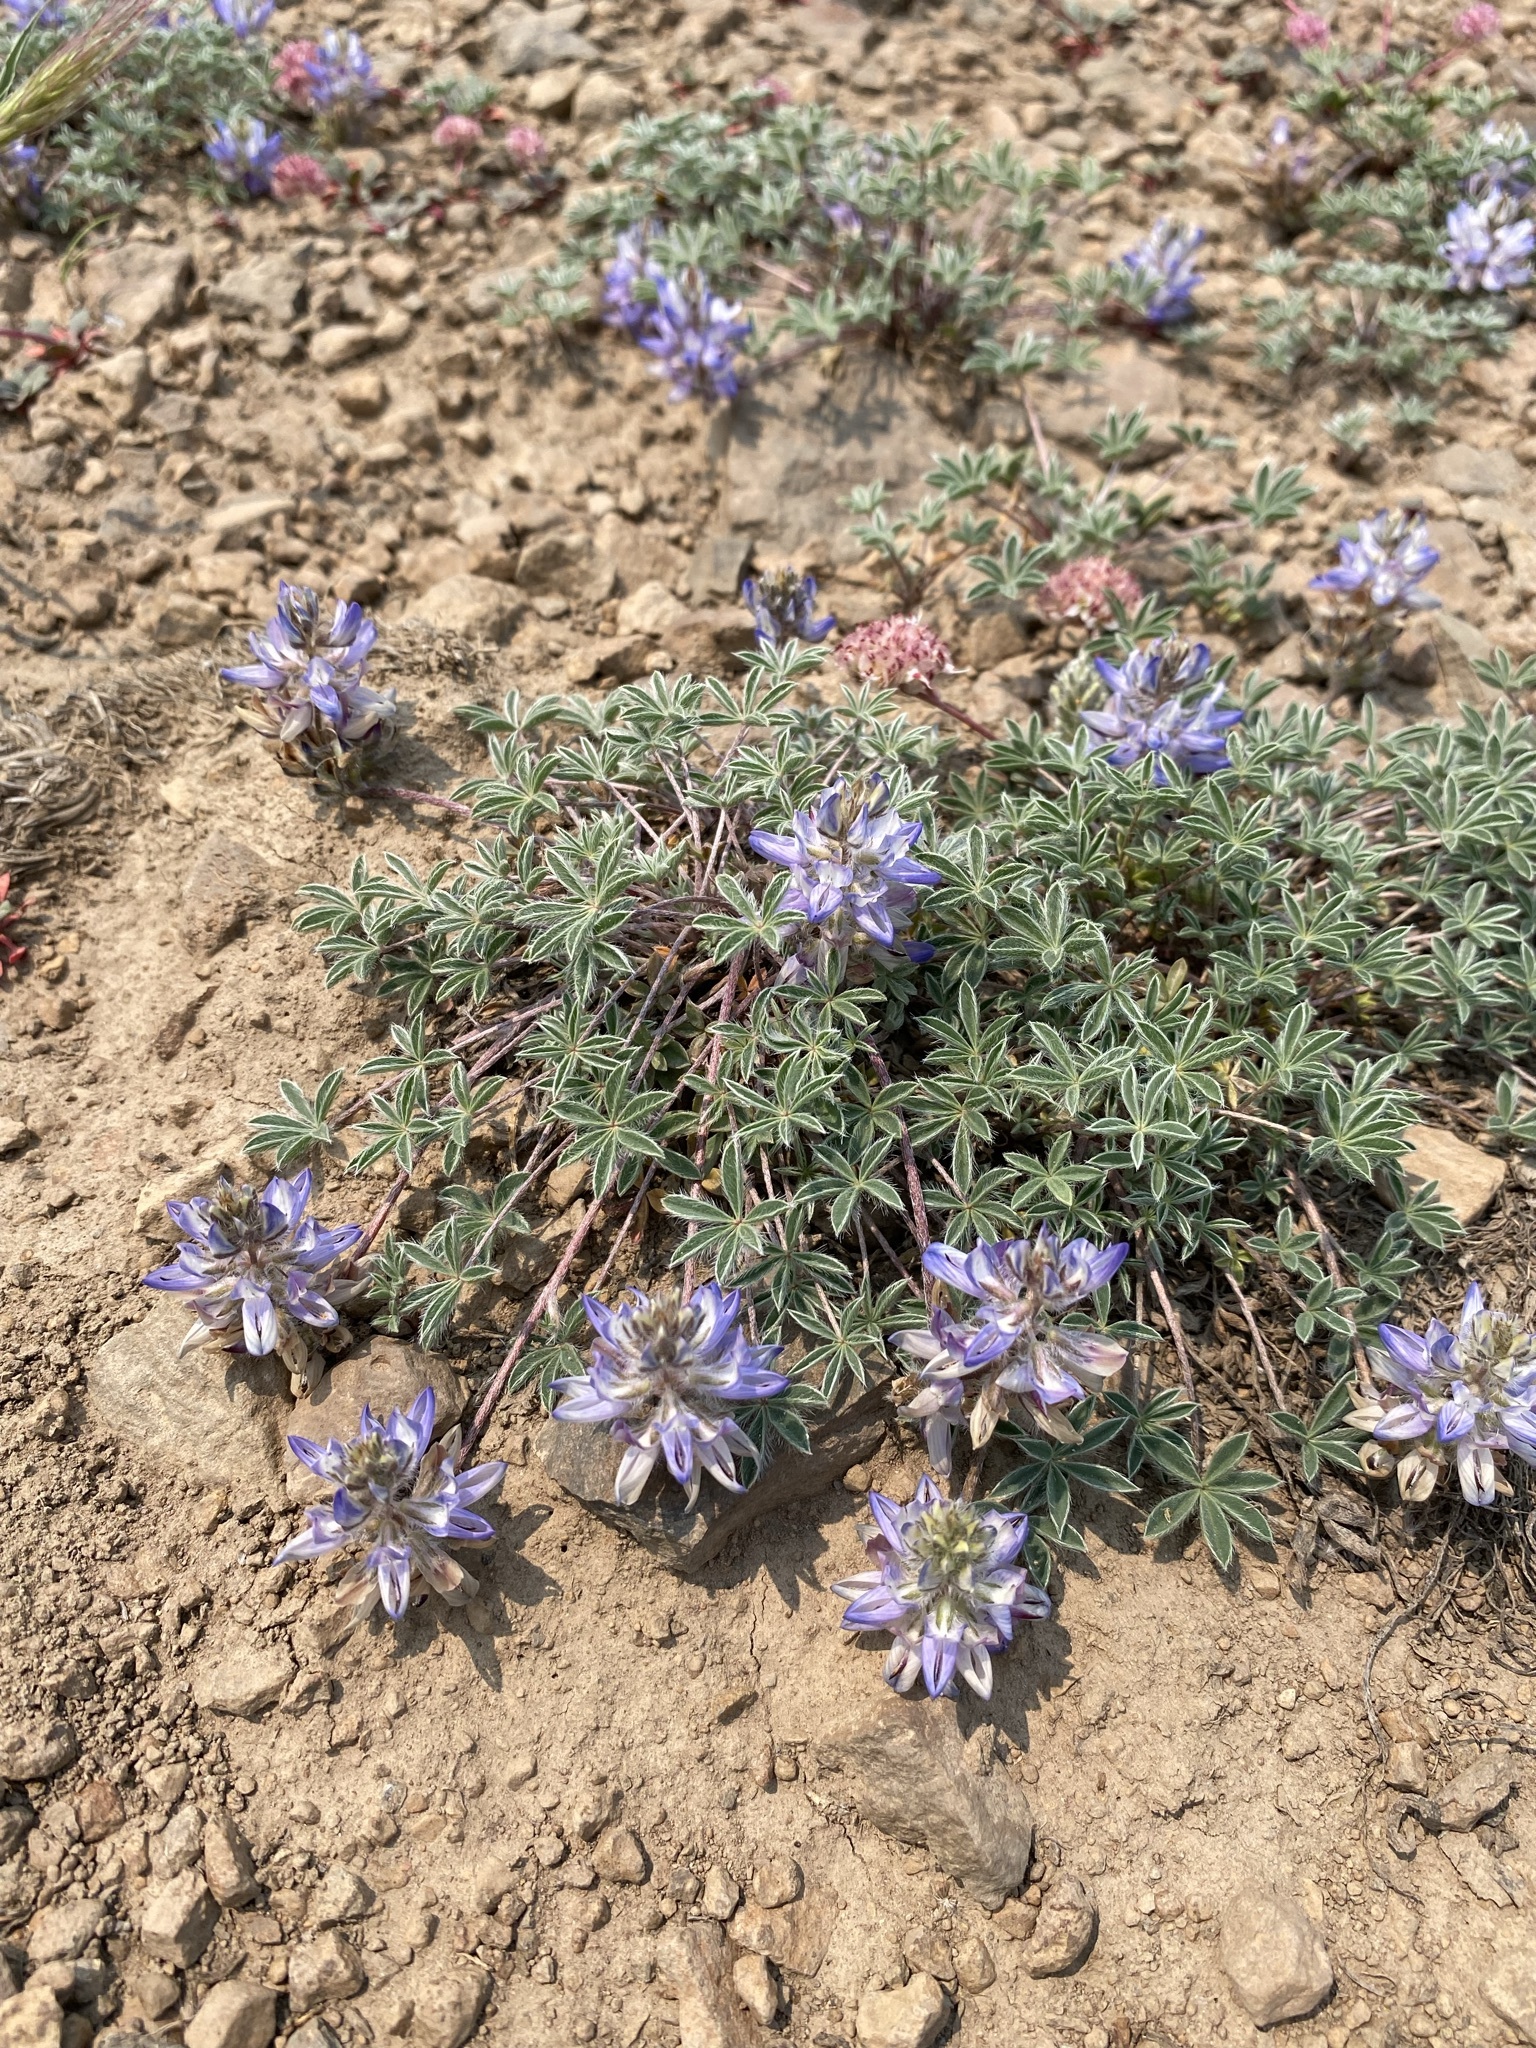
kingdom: Plantae
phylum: Tracheophyta
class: Magnoliopsida
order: Fabales
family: Fabaceae
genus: Lupinus
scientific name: Lupinus lepidus
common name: Prairie lupine
